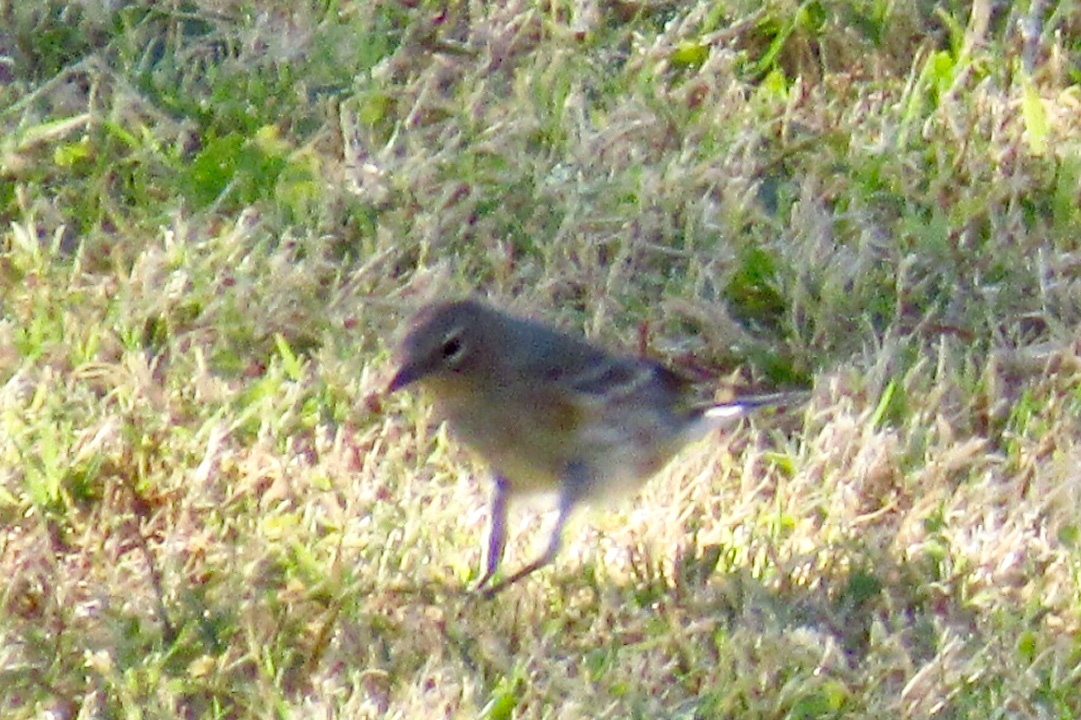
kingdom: Animalia
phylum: Chordata
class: Aves
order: Passeriformes
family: Parulidae
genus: Setophaga
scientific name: Setophaga coronata
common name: Myrtle warbler
